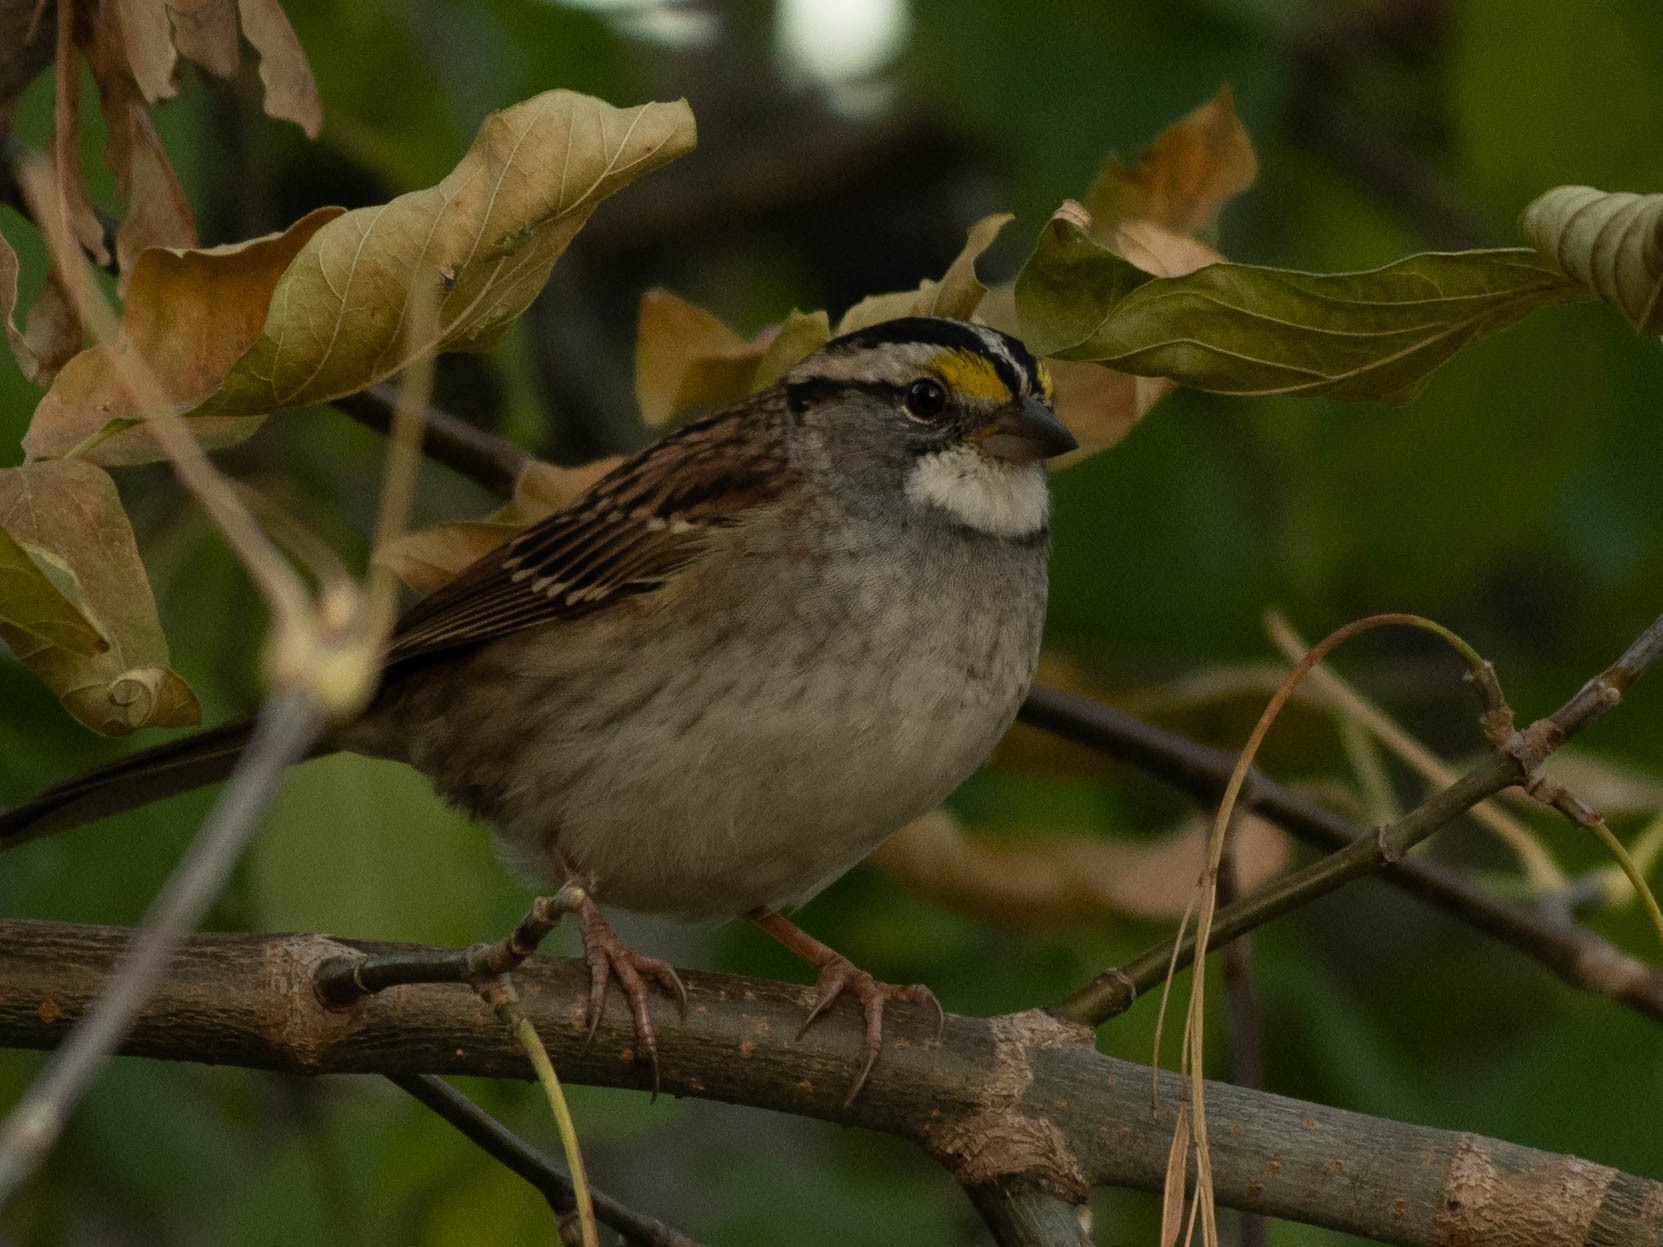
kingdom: Animalia
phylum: Chordata
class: Aves
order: Passeriformes
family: Passerellidae
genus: Zonotrichia
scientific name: Zonotrichia albicollis
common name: White-throated sparrow
